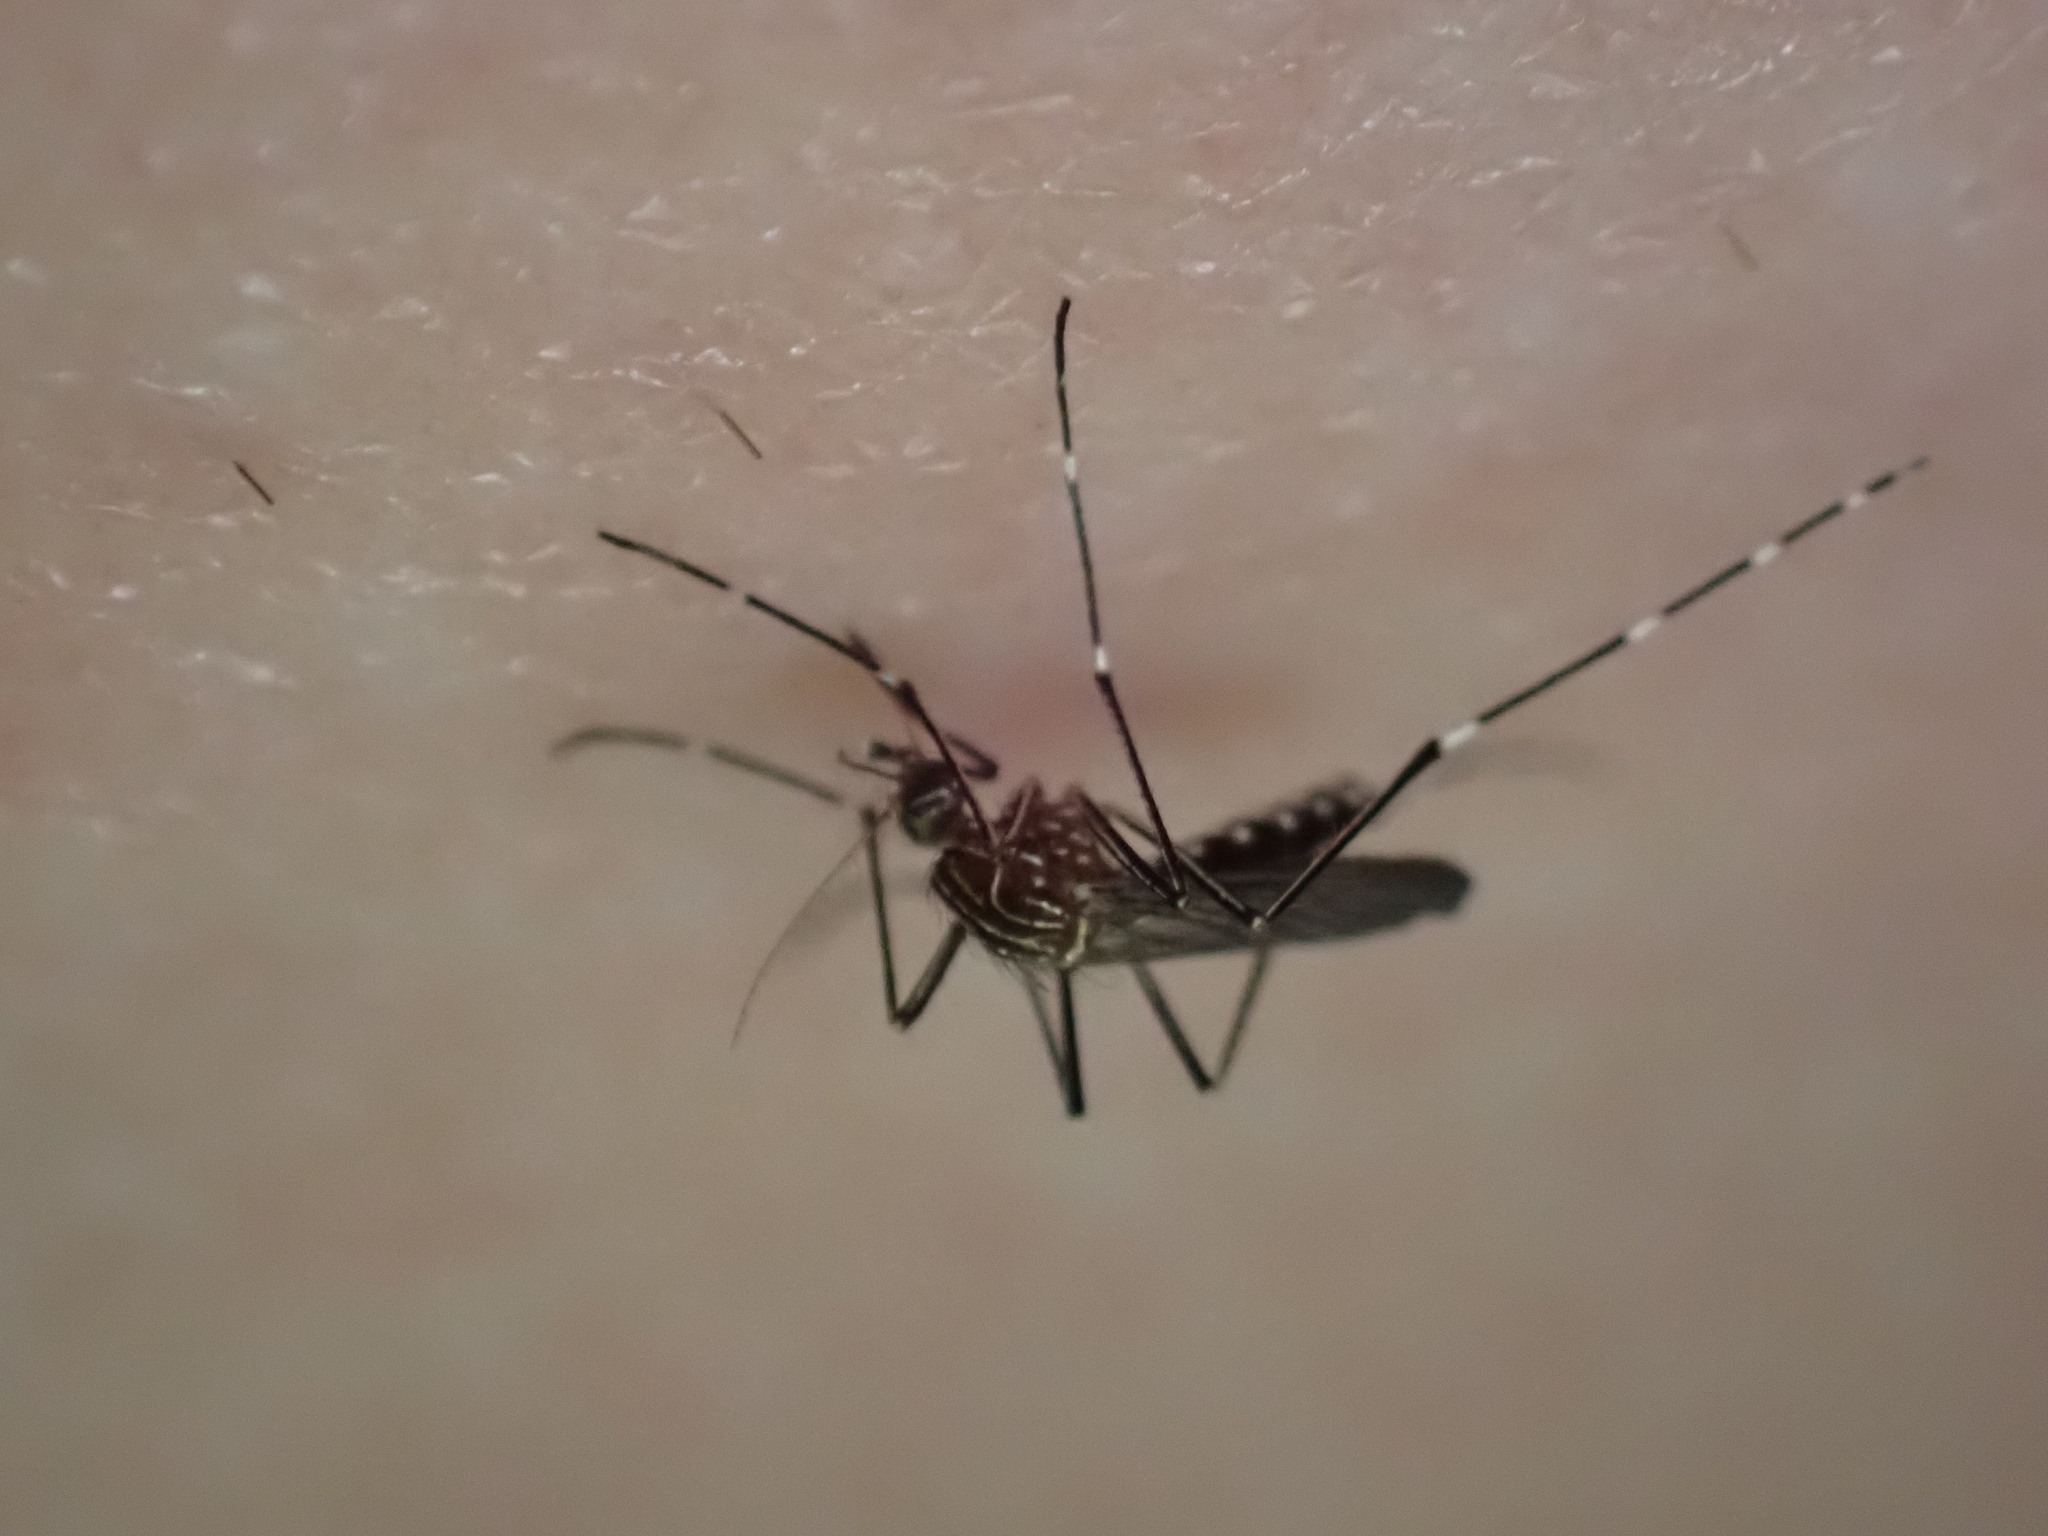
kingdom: Animalia
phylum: Arthropoda
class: Insecta
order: Diptera
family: Culicidae
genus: Aedes
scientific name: Aedes notoscriptus
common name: Australian backyard mosquito
